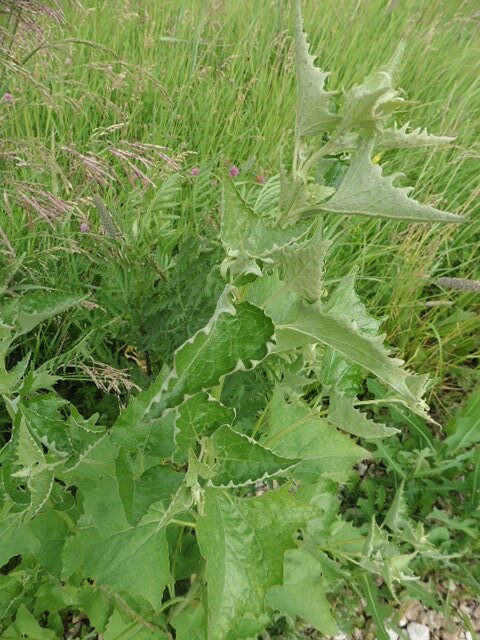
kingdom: Plantae
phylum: Tracheophyta
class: Magnoliopsida
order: Caryophyllales
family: Amaranthaceae
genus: Atriplex
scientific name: Atriplex sagittata
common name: Purple orache
